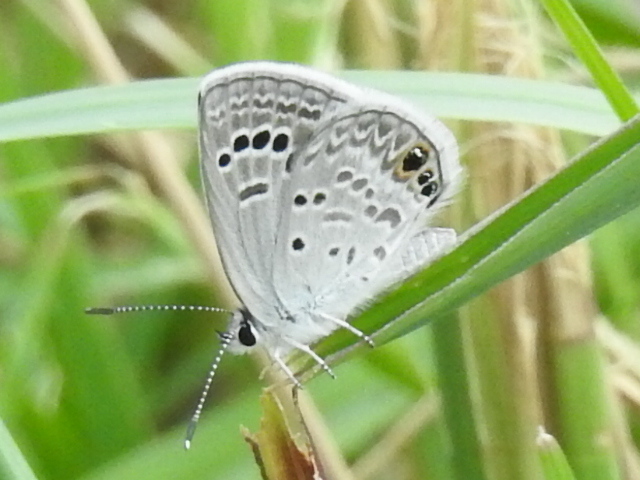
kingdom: Animalia
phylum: Arthropoda
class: Insecta
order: Lepidoptera
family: Lycaenidae
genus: Echinargus
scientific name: Echinargus isola
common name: Reakirt's blue
